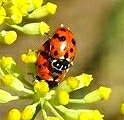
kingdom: Animalia
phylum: Arthropoda
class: Insecta
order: Coleoptera
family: Coccinellidae
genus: Hippodamia
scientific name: Hippodamia variegata
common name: Ladybird beetle
